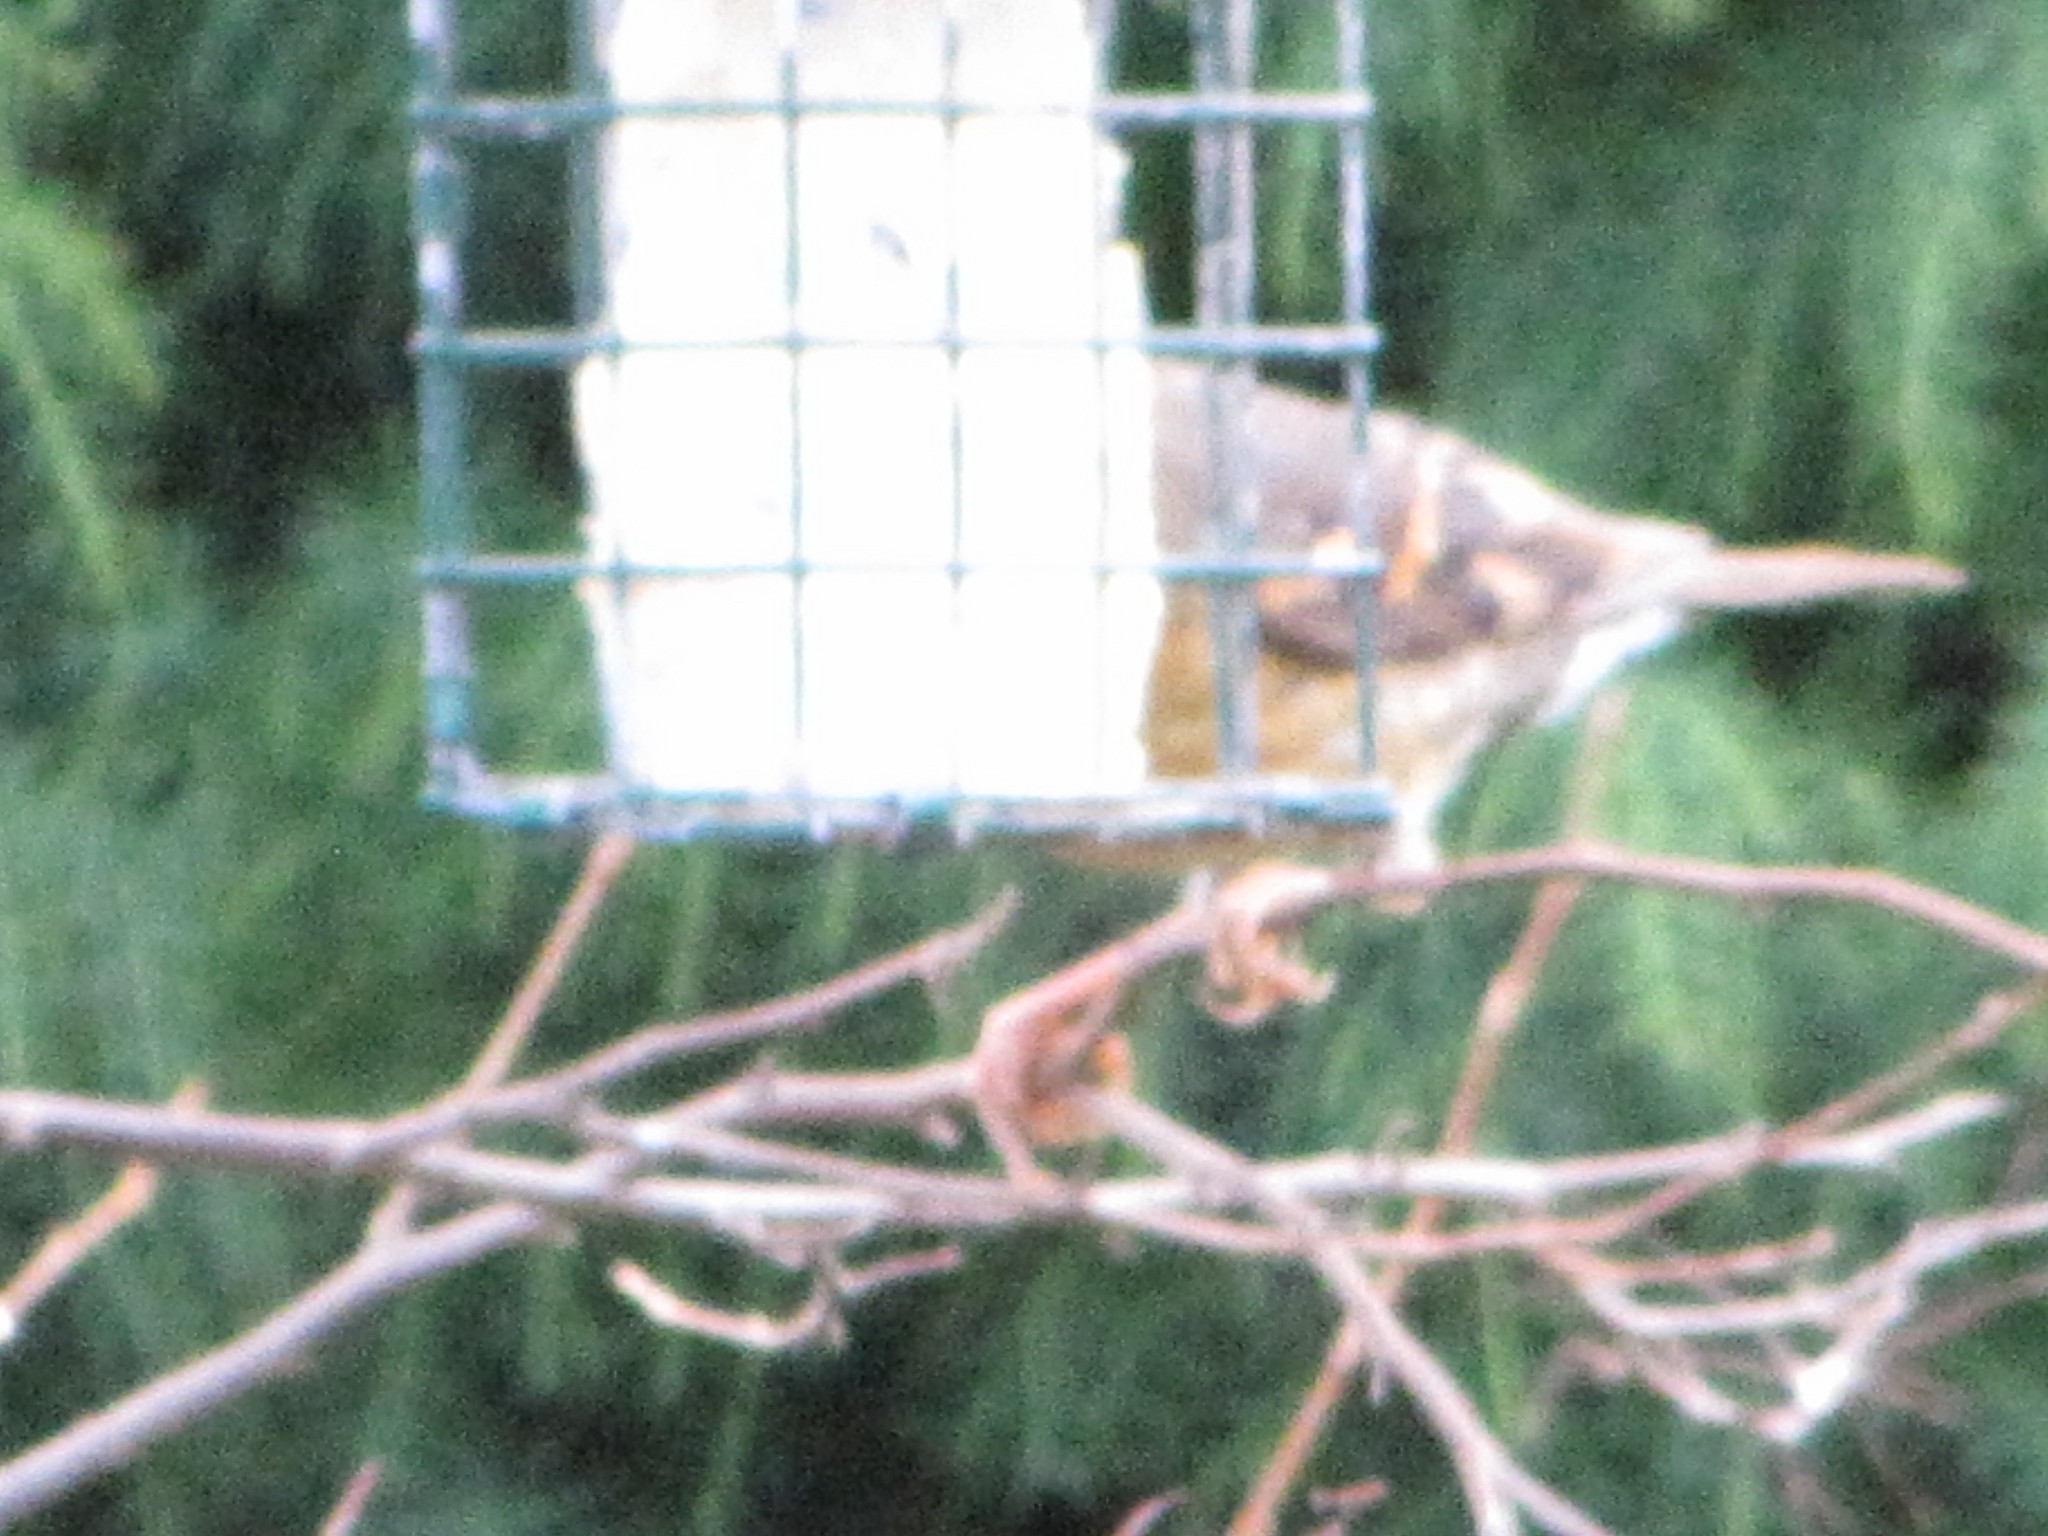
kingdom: Animalia
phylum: Chordata
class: Aves
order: Passeriformes
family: Turdidae
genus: Ixoreus
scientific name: Ixoreus naevius
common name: Varied thrush
